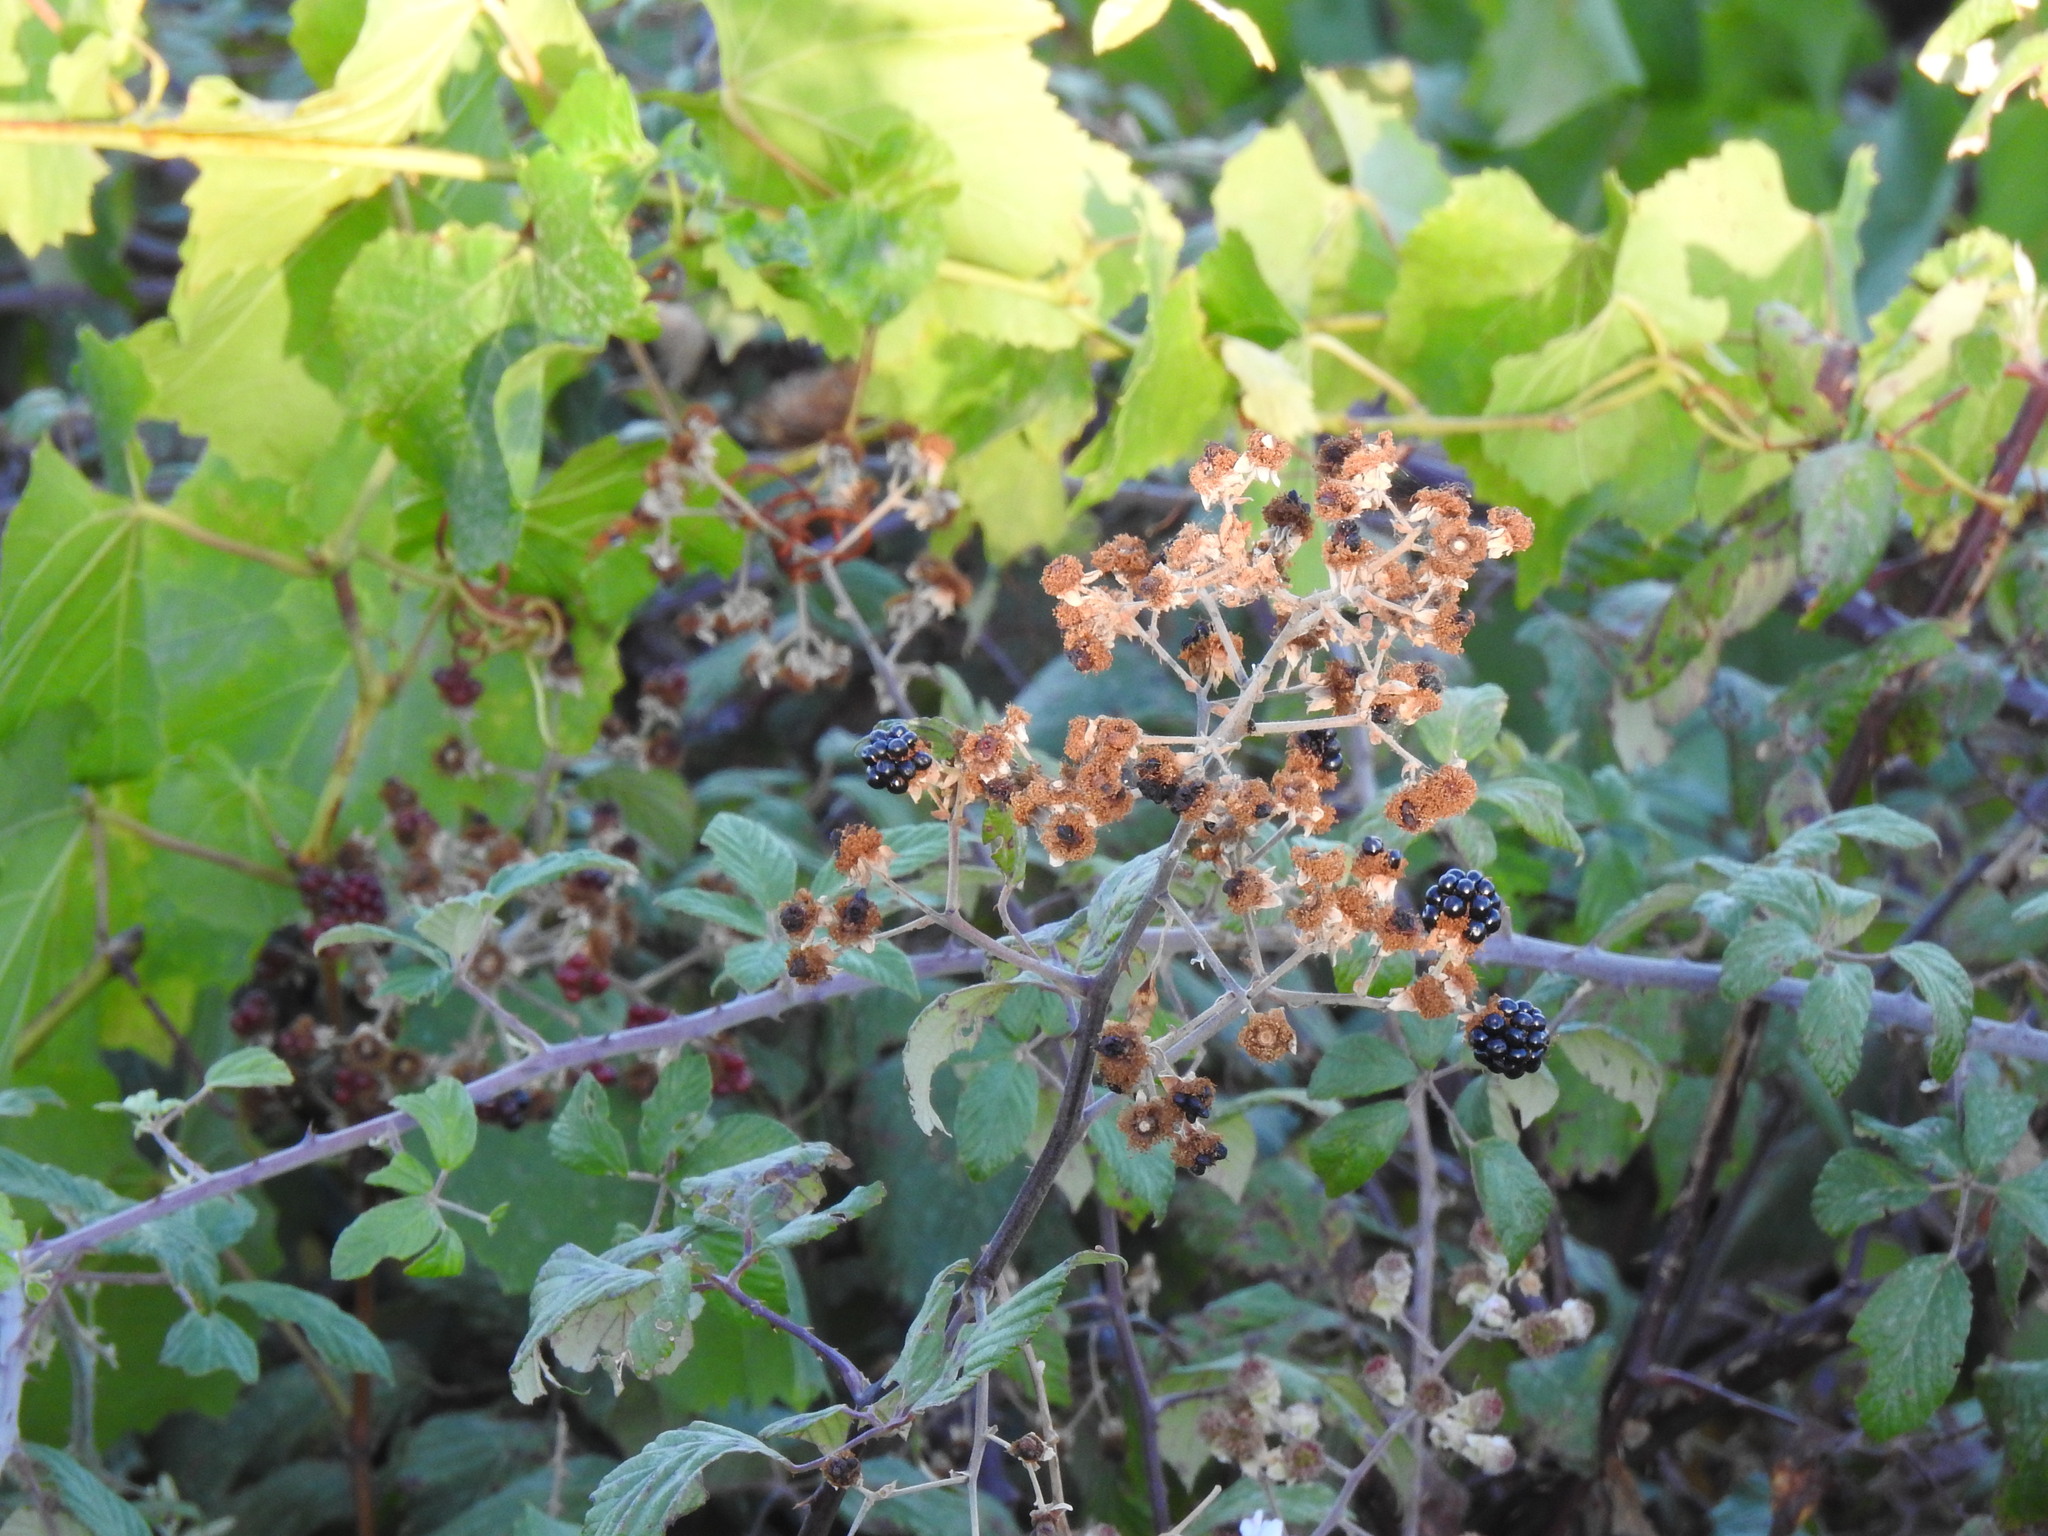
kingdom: Plantae
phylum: Tracheophyta
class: Magnoliopsida
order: Rosales
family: Rosaceae
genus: Rubus
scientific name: Rubus ulmifolius
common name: Elmleaf blackberry
